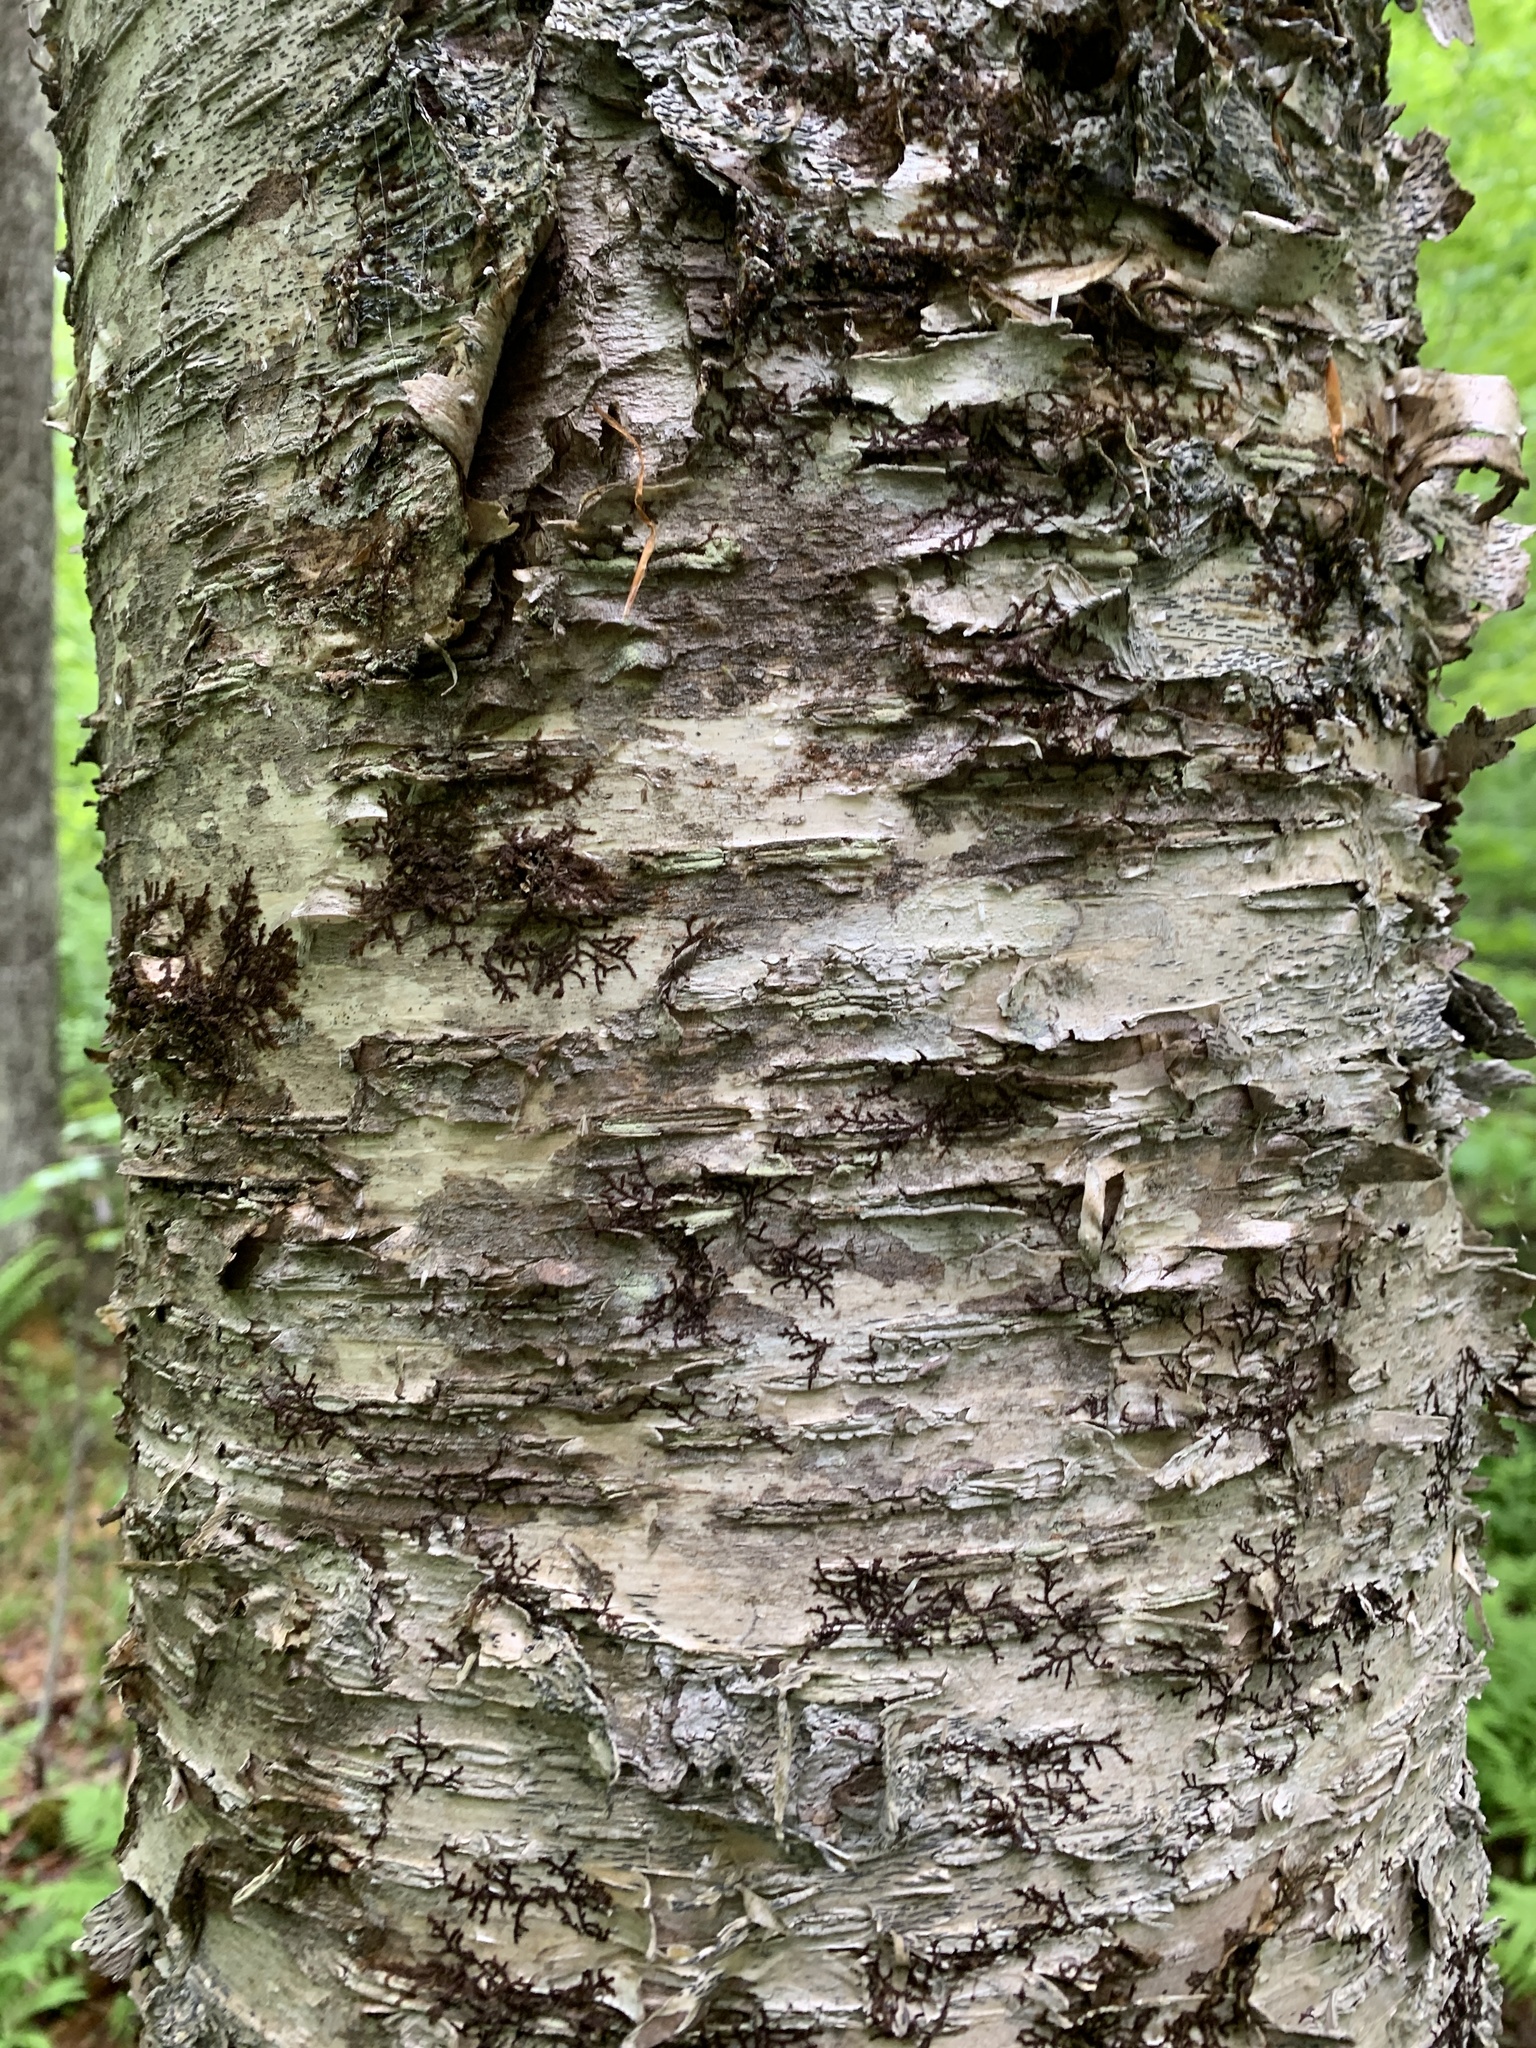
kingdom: Plantae
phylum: Tracheophyta
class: Magnoliopsida
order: Fagales
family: Betulaceae
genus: Betula
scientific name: Betula alleghaniensis
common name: Yellow birch
